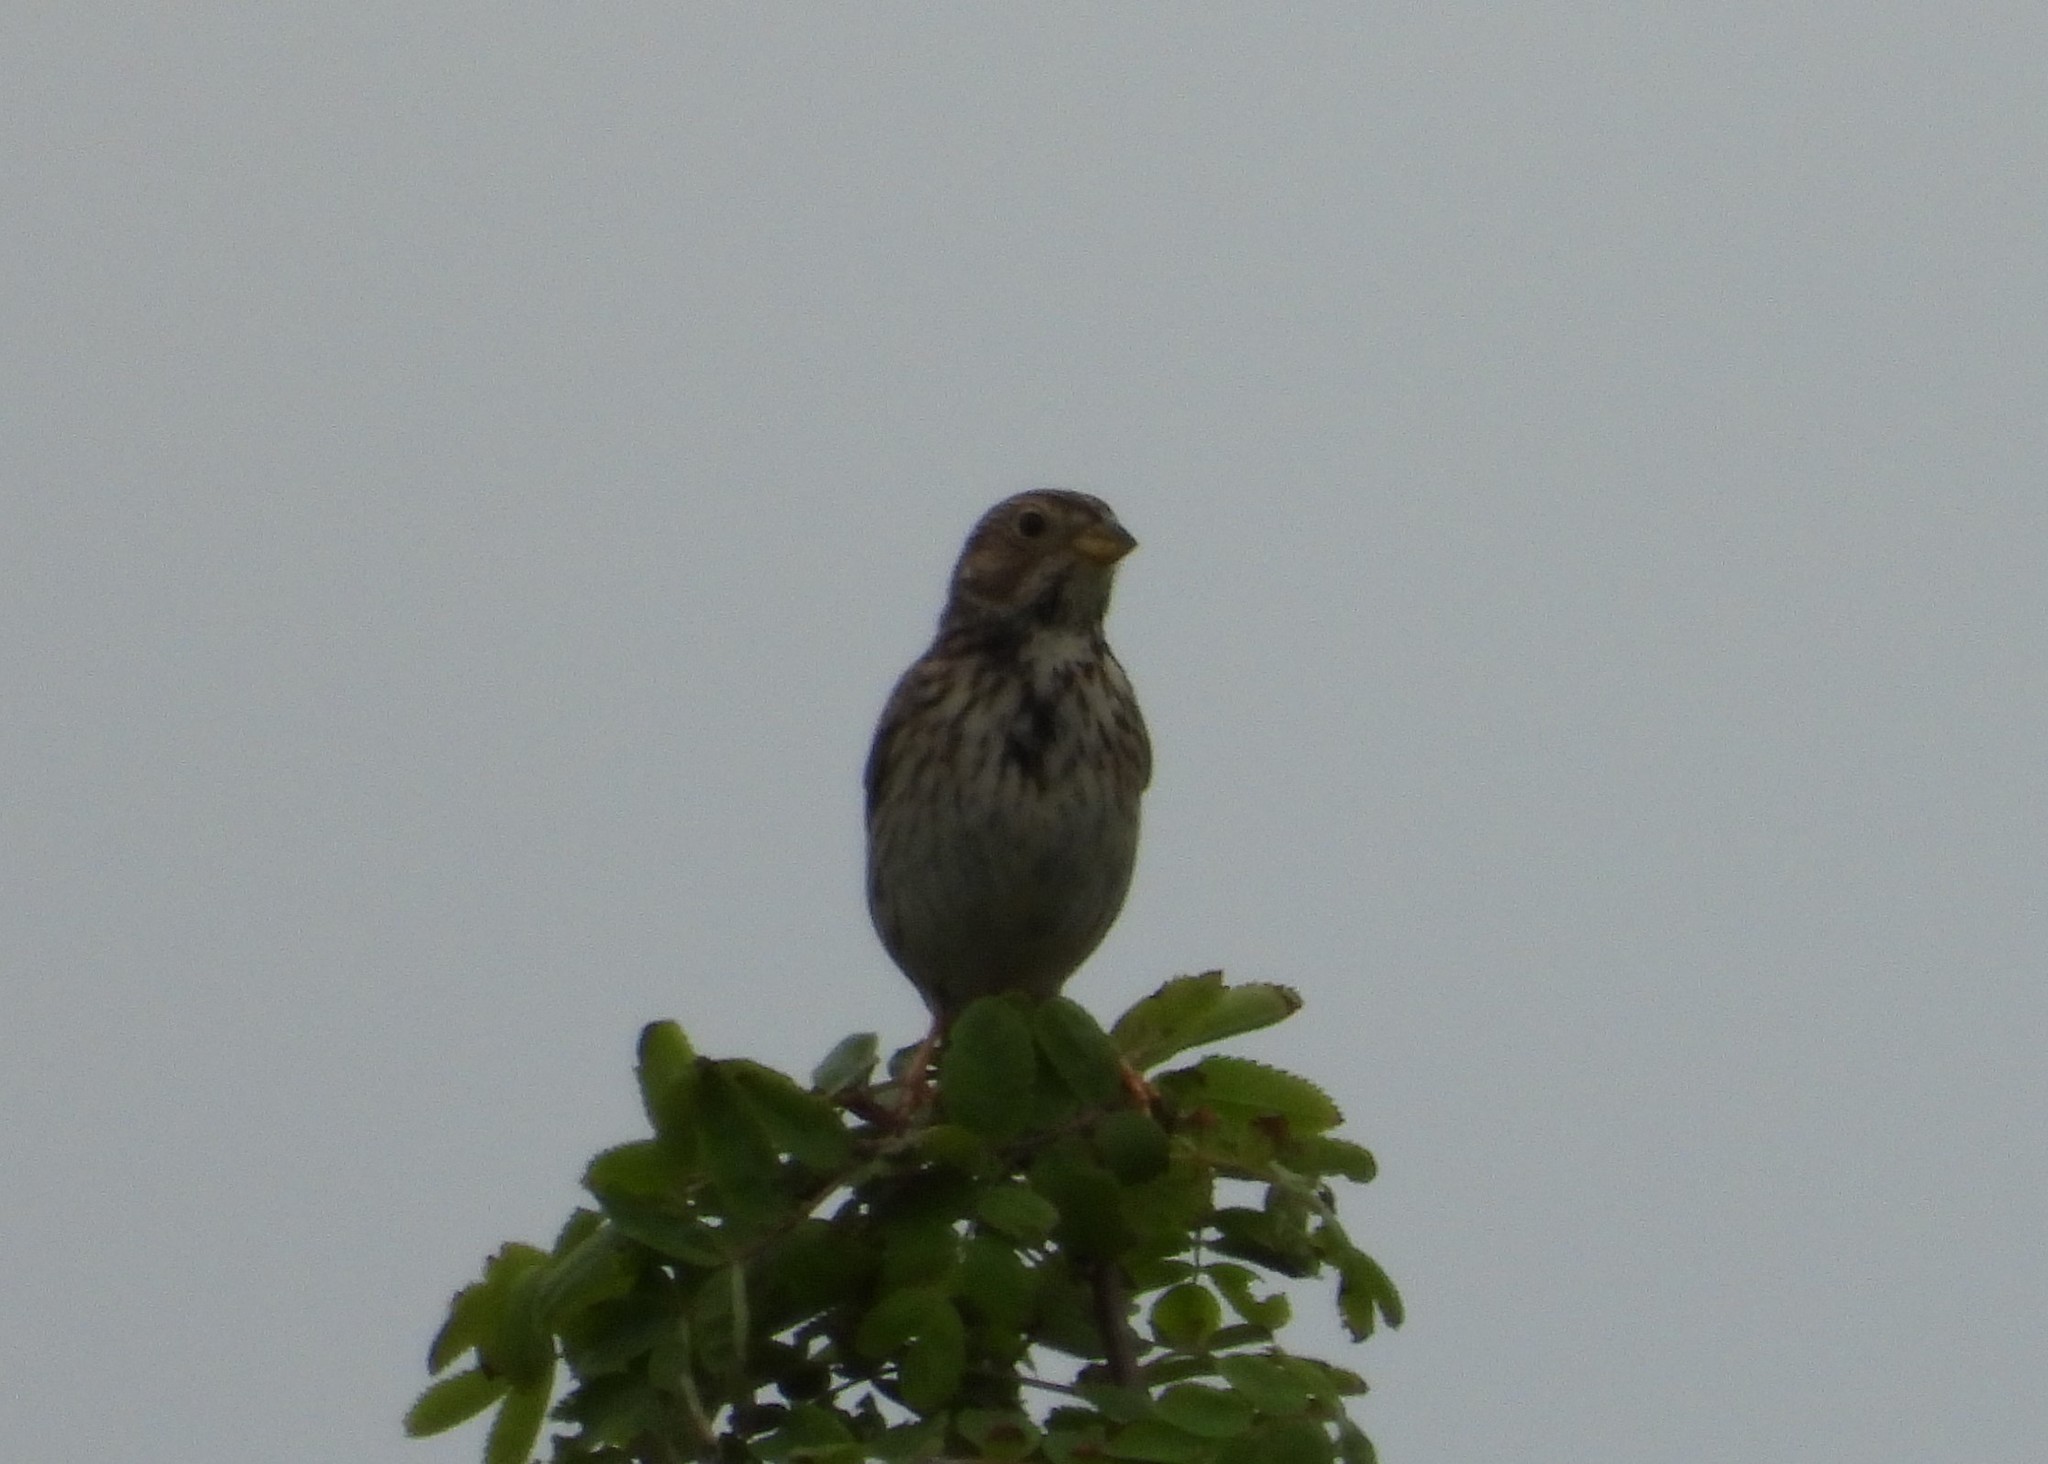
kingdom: Animalia
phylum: Chordata
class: Aves
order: Passeriformes
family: Emberizidae
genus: Emberiza
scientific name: Emberiza calandra
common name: Corn bunting
